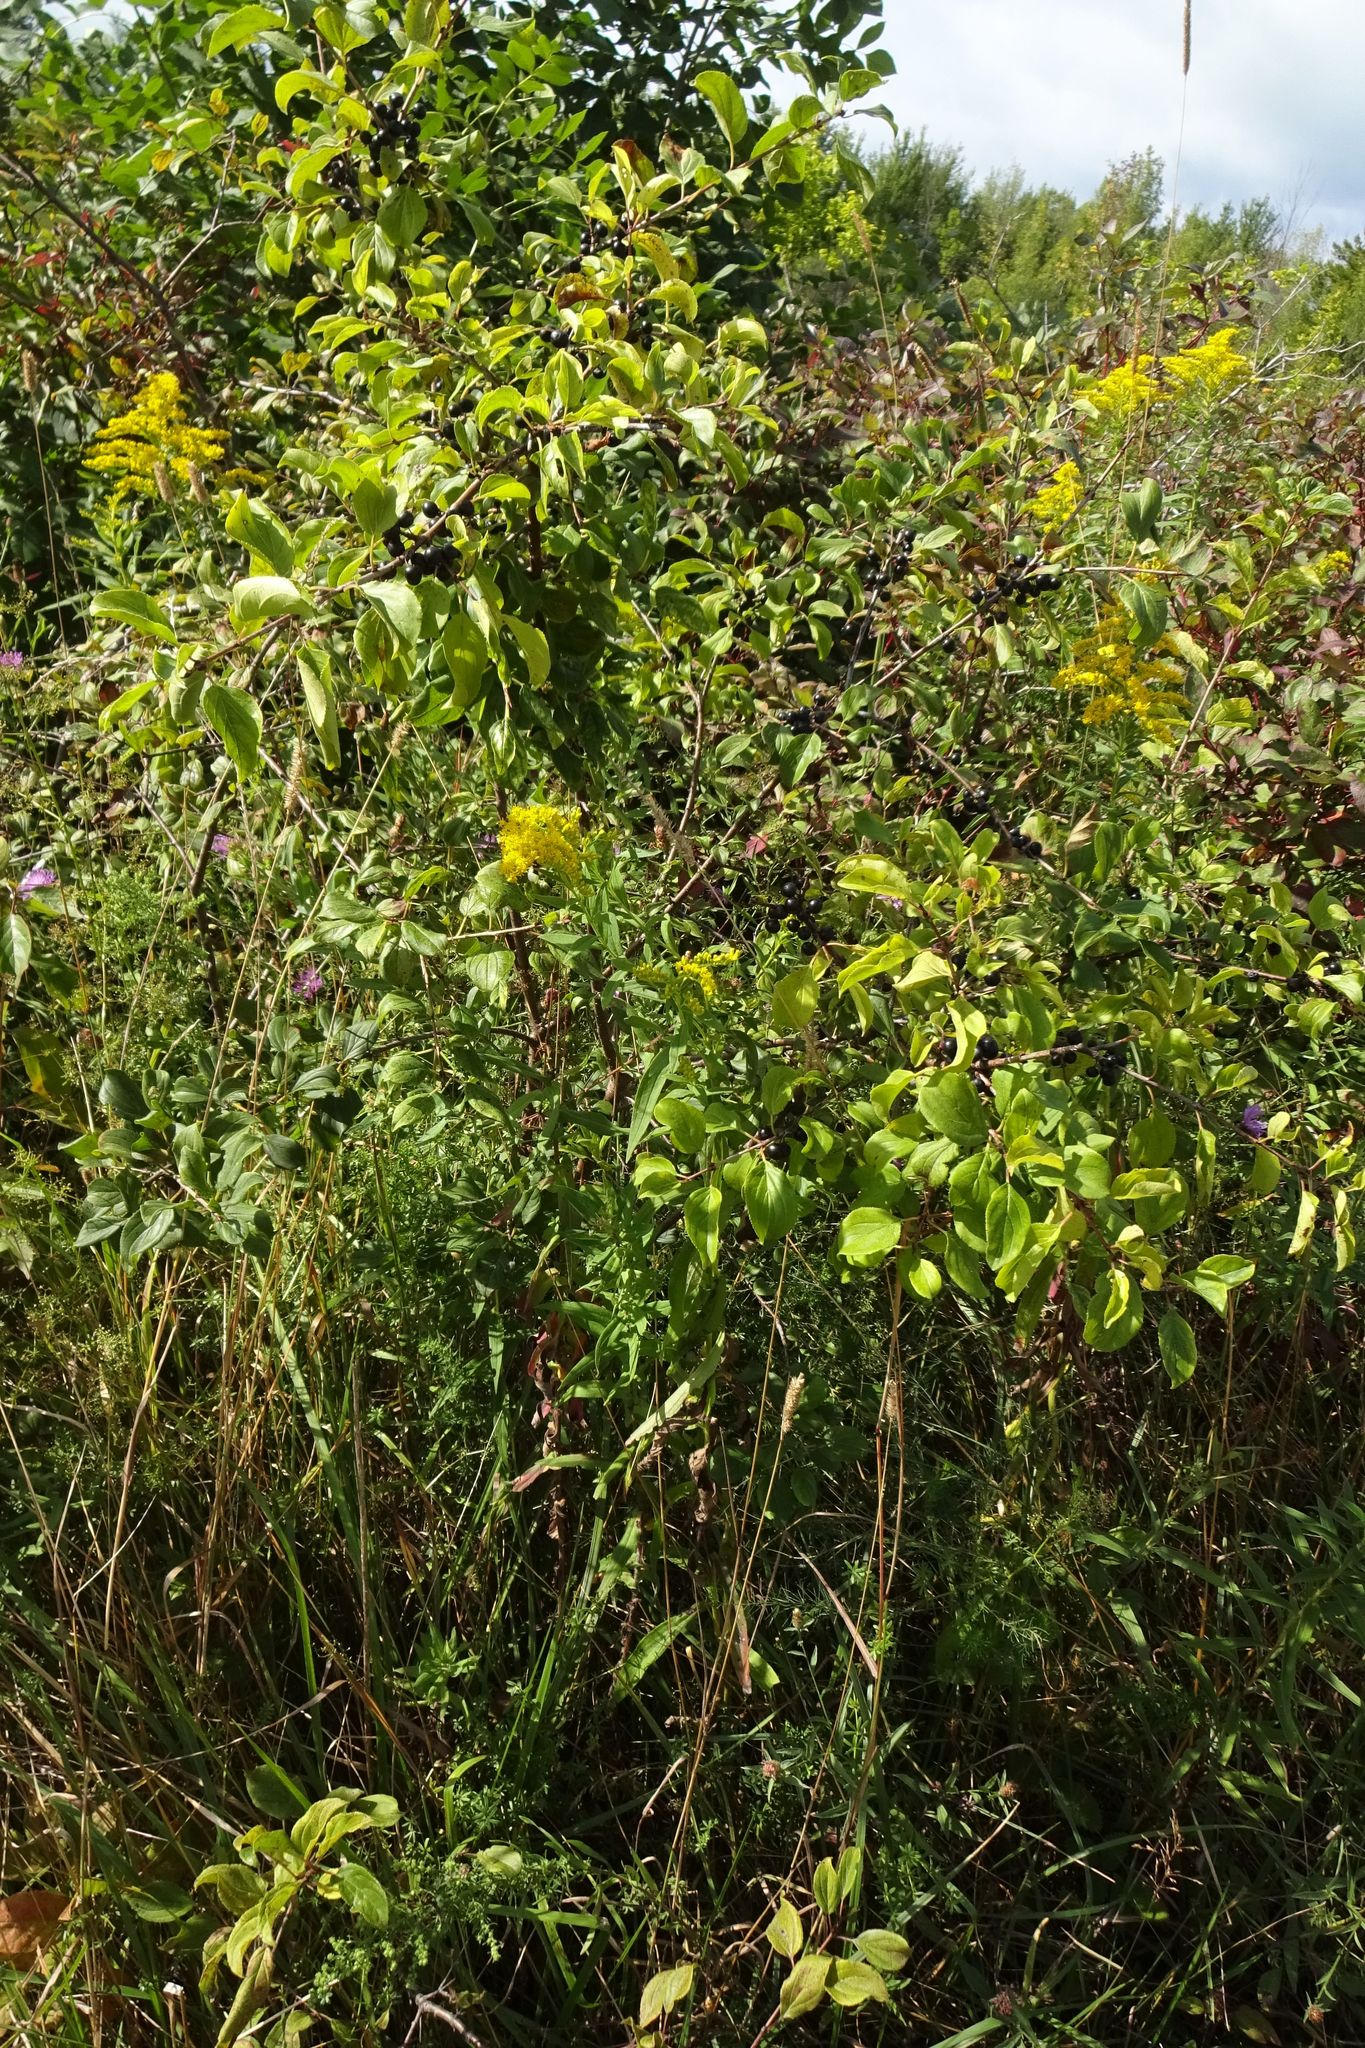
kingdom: Plantae
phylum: Tracheophyta
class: Magnoliopsida
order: Rosales
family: Rhamnaceae
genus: Rhamnus
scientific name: Rhamnus cathartica
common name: Common buckthorn
